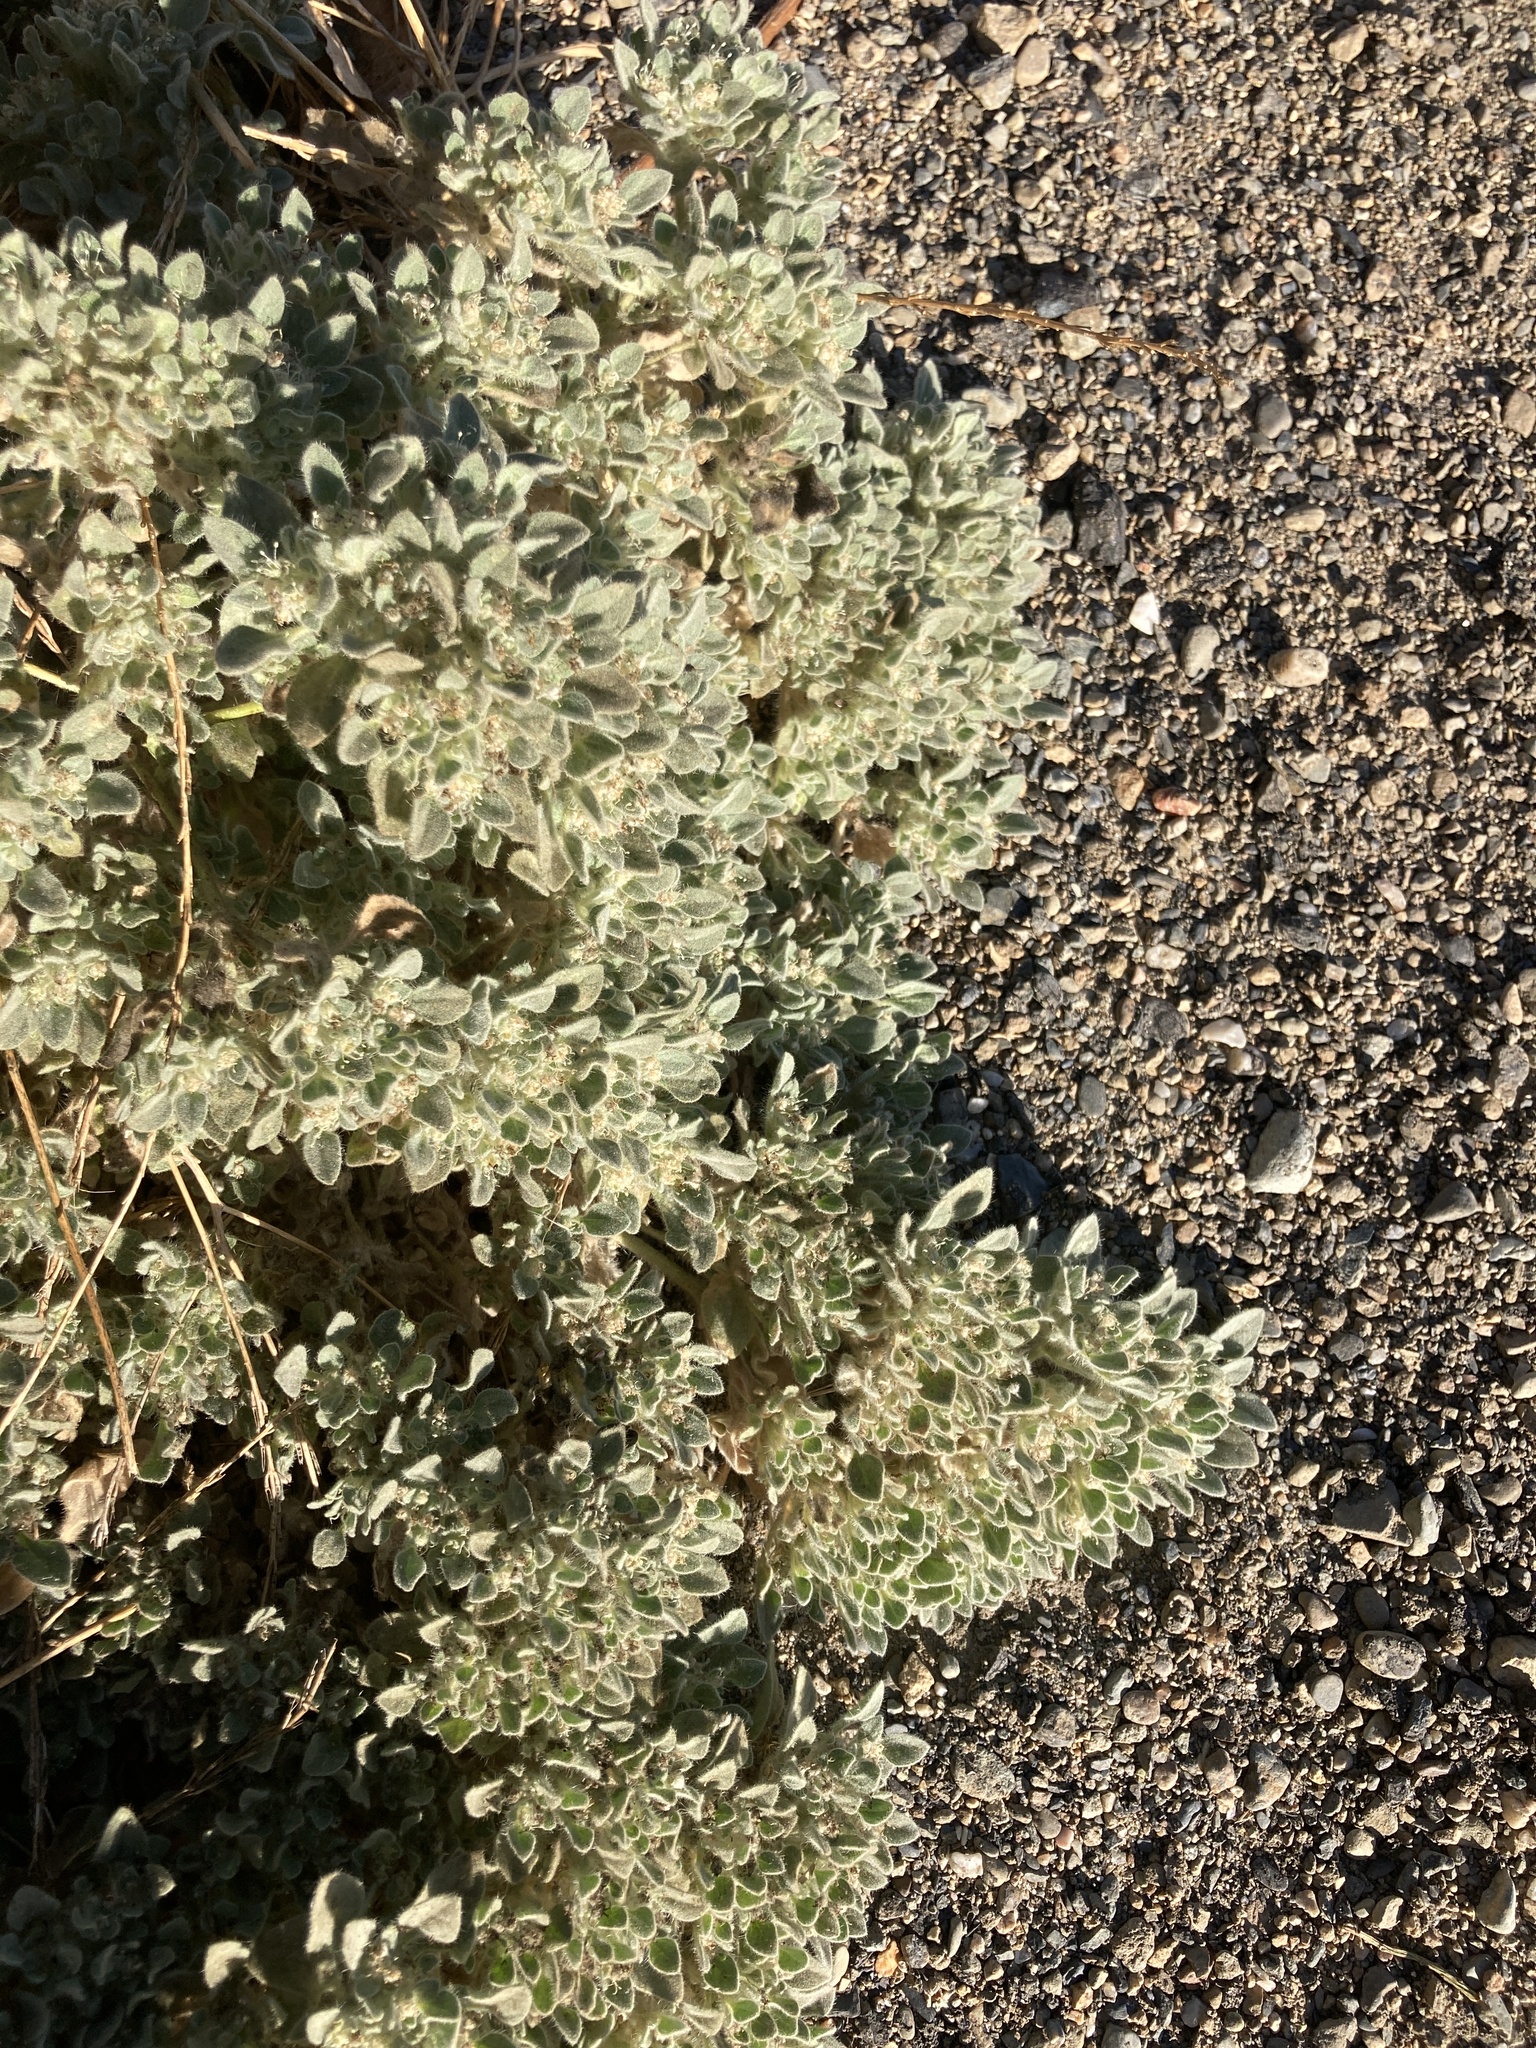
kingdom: Plantae
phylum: Tracheophyta
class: Magnoliopsida
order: Malpighiales
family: Euphorbiaceae
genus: Croton
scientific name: Croton setiger
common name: Dove weed
